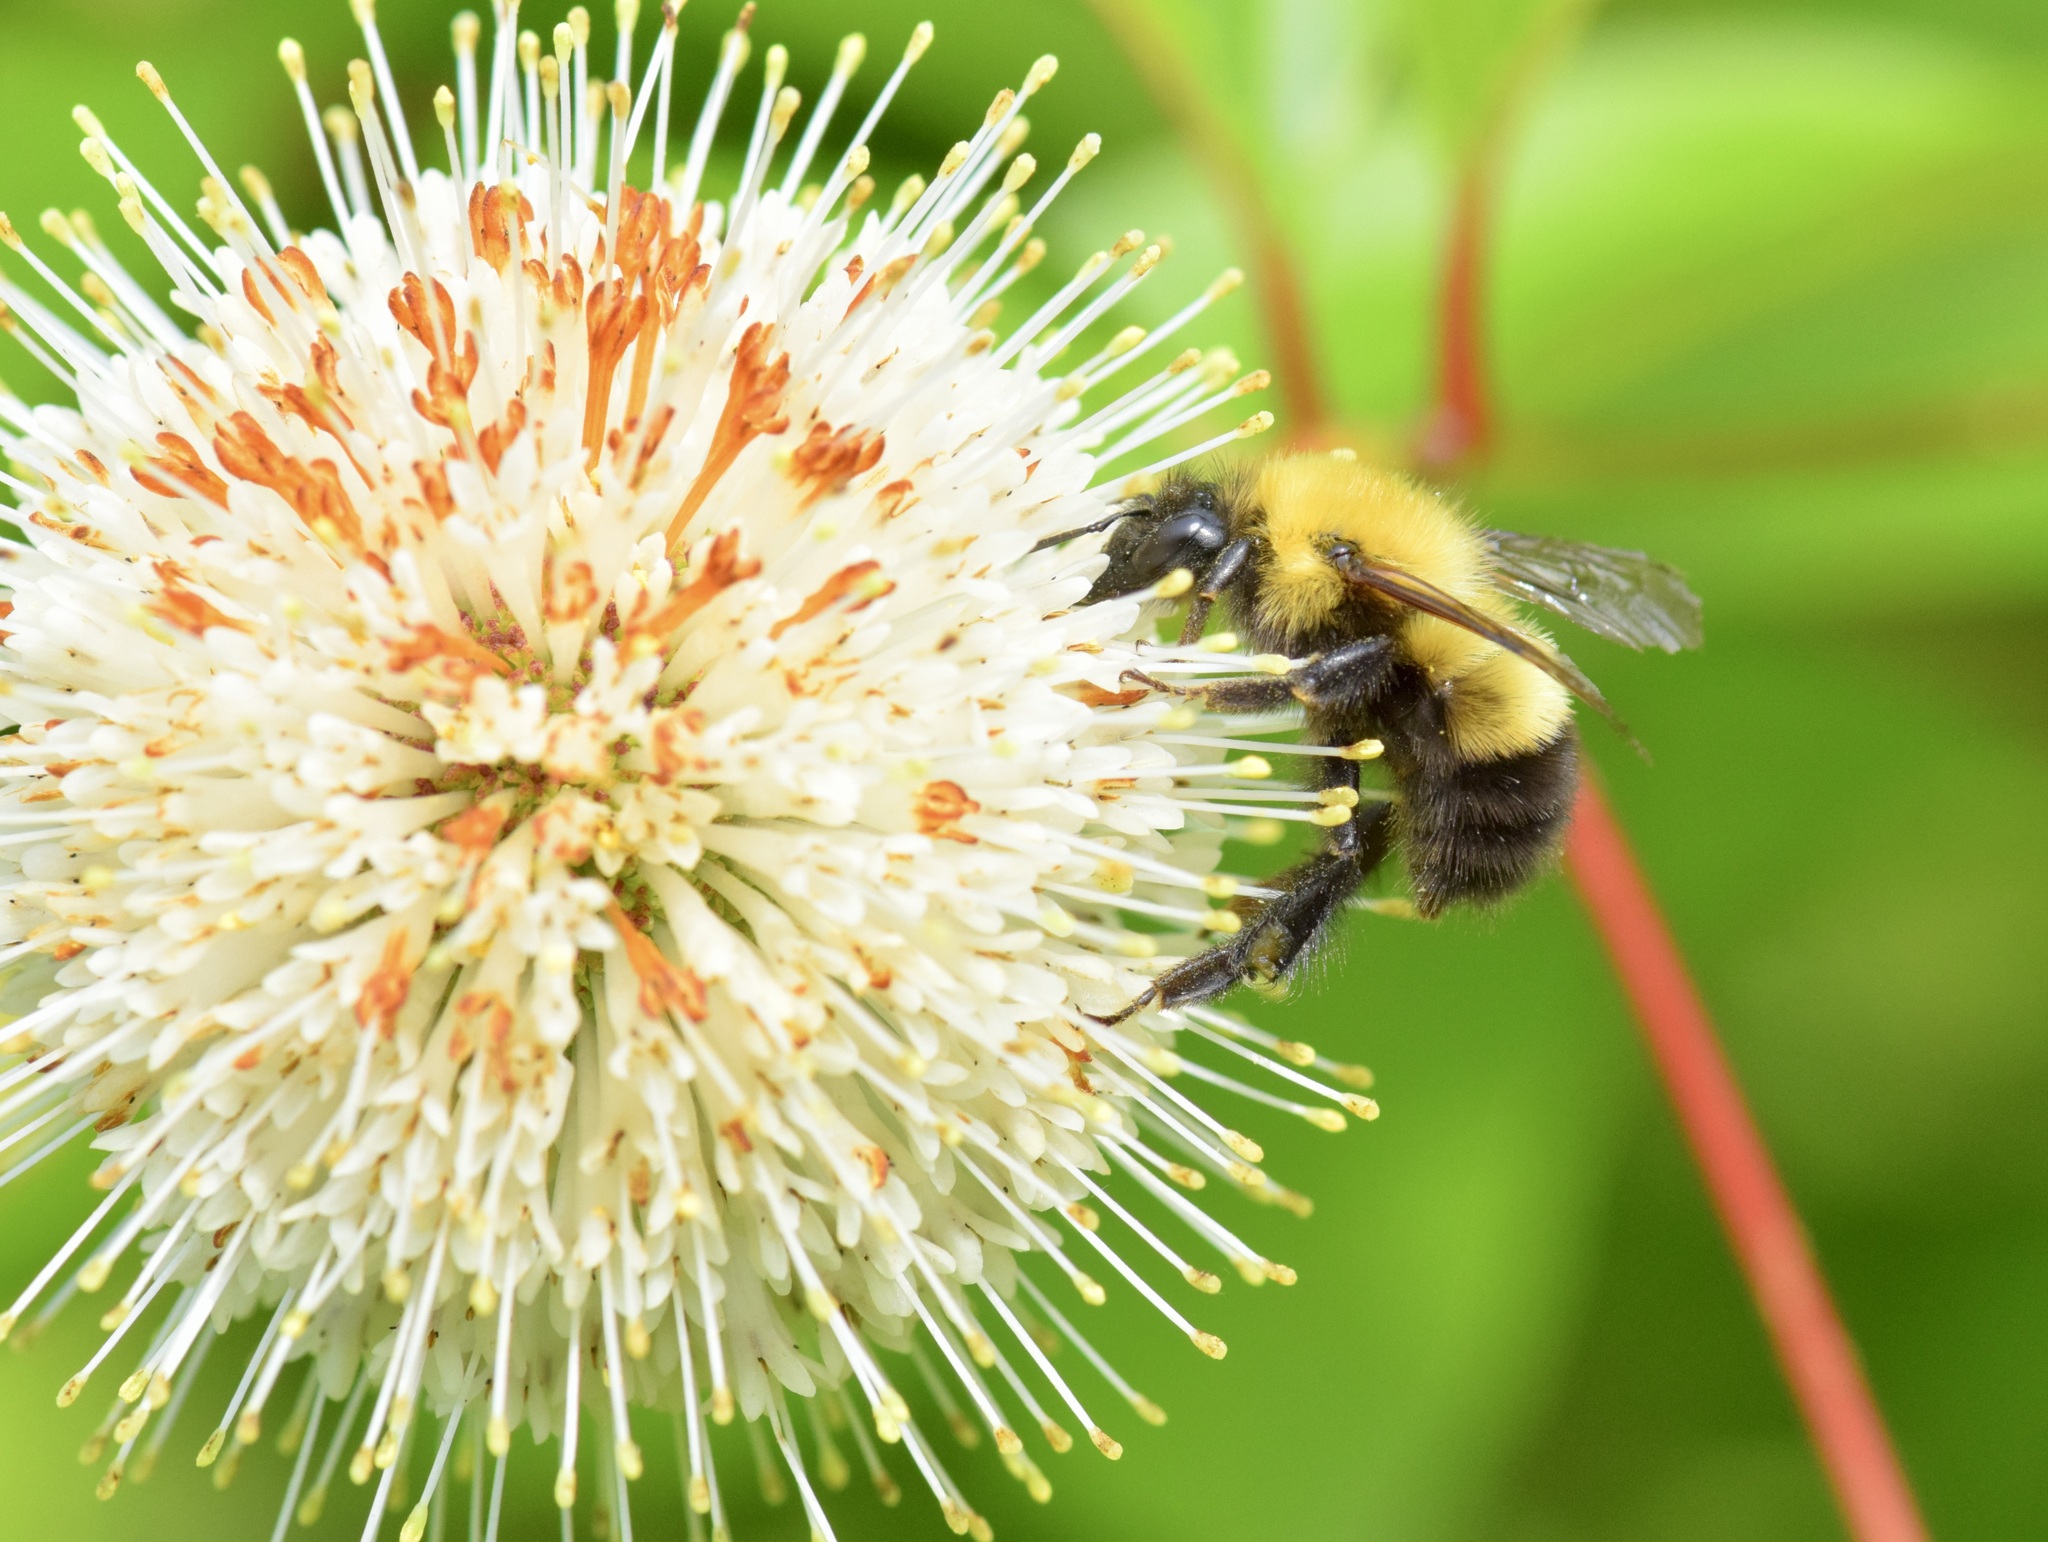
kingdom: Animalia
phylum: Arthropoda
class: Insecta
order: Hymenoptera
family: Apidae
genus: Bombus
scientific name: Bombus perplexus
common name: Confusing bumble bee
